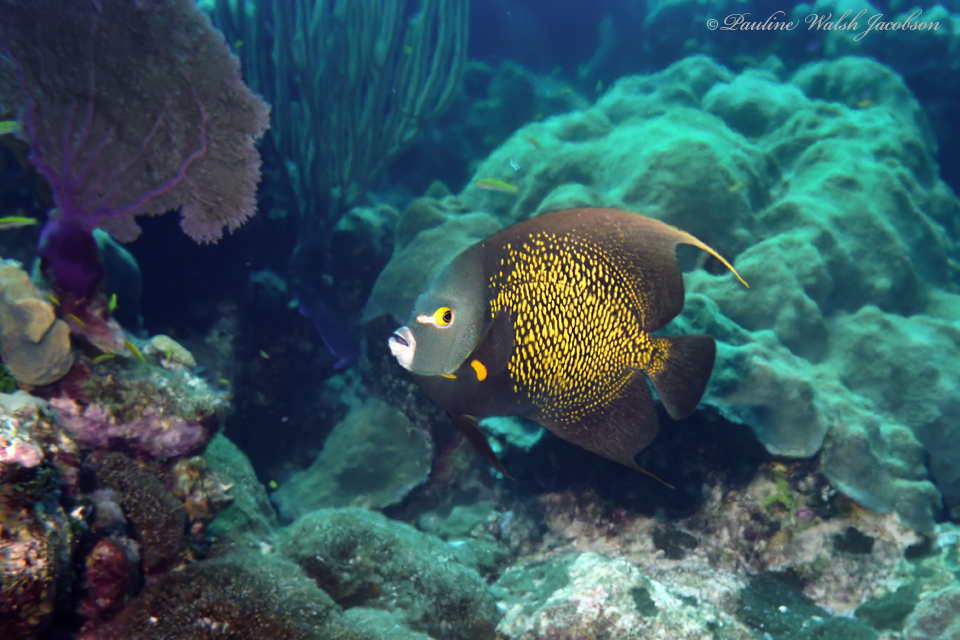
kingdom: Animalia
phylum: Chordata
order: Perciformes
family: Pomacanthidae
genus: Pomacanthus
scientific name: Pomacanthus paru
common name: French angelfish
